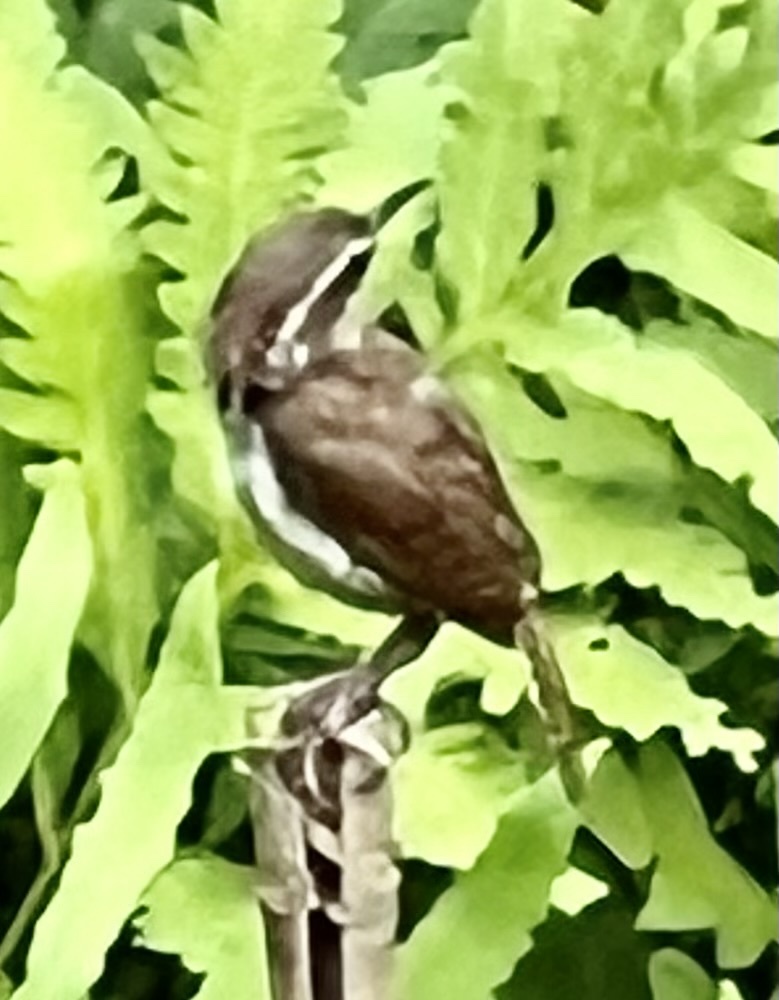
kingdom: Animalia
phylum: Chordata
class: Aves
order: Passeriformes
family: Troglodytidae
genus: Thryothorus
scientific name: Thryothorus ludovicianus
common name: Carolina wren
